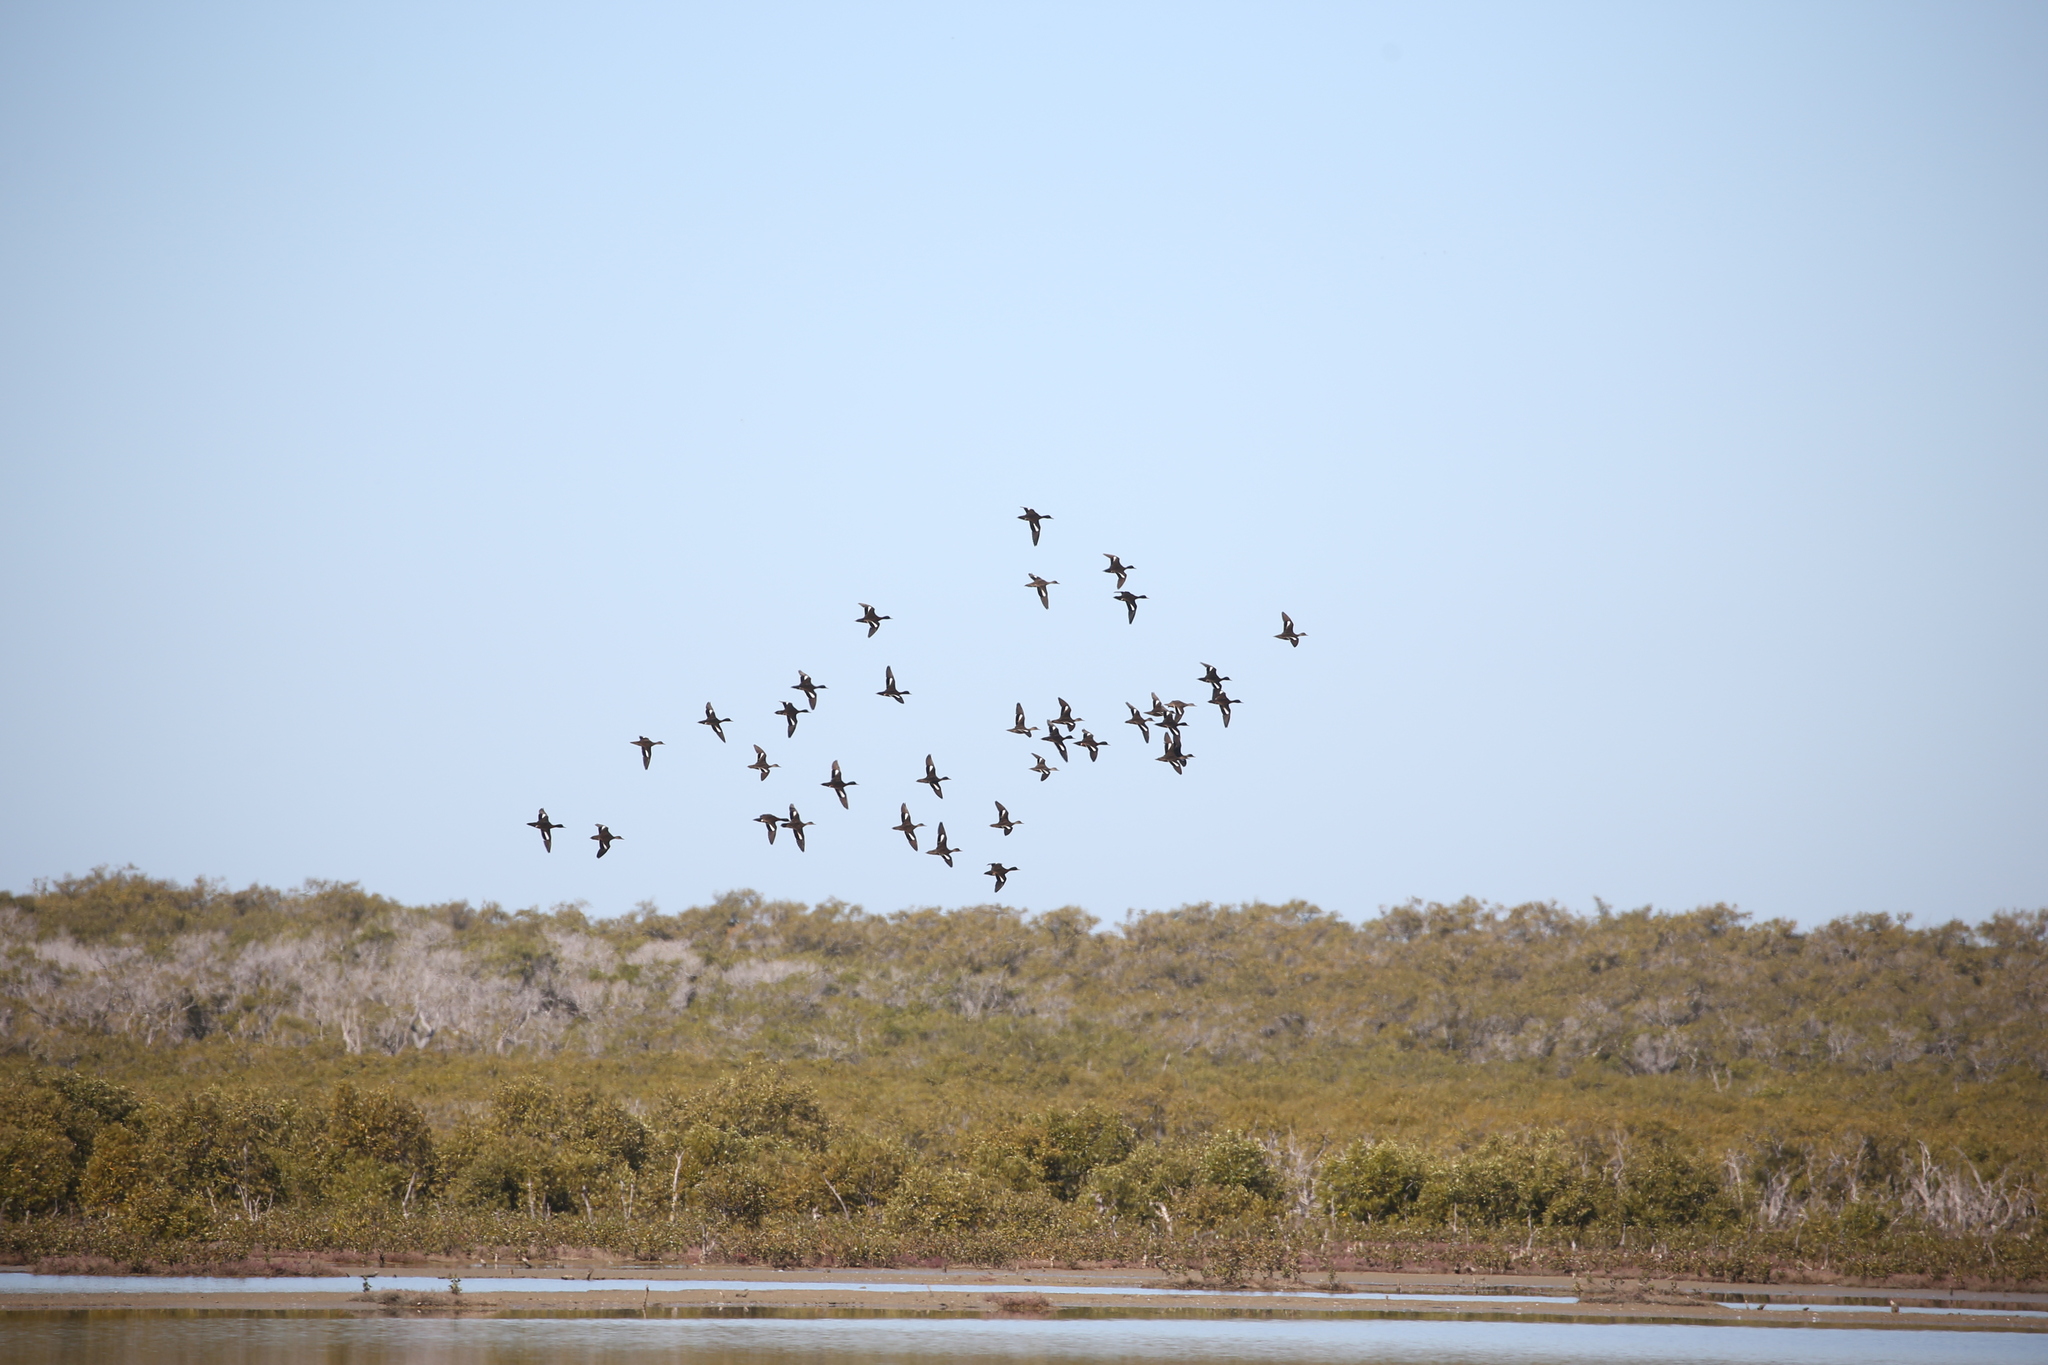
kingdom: Animalia
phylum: Chordata
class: Aves
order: Anseriformes
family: Anatidae
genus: Anas
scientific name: Anas castanea
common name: Chestnut teal
